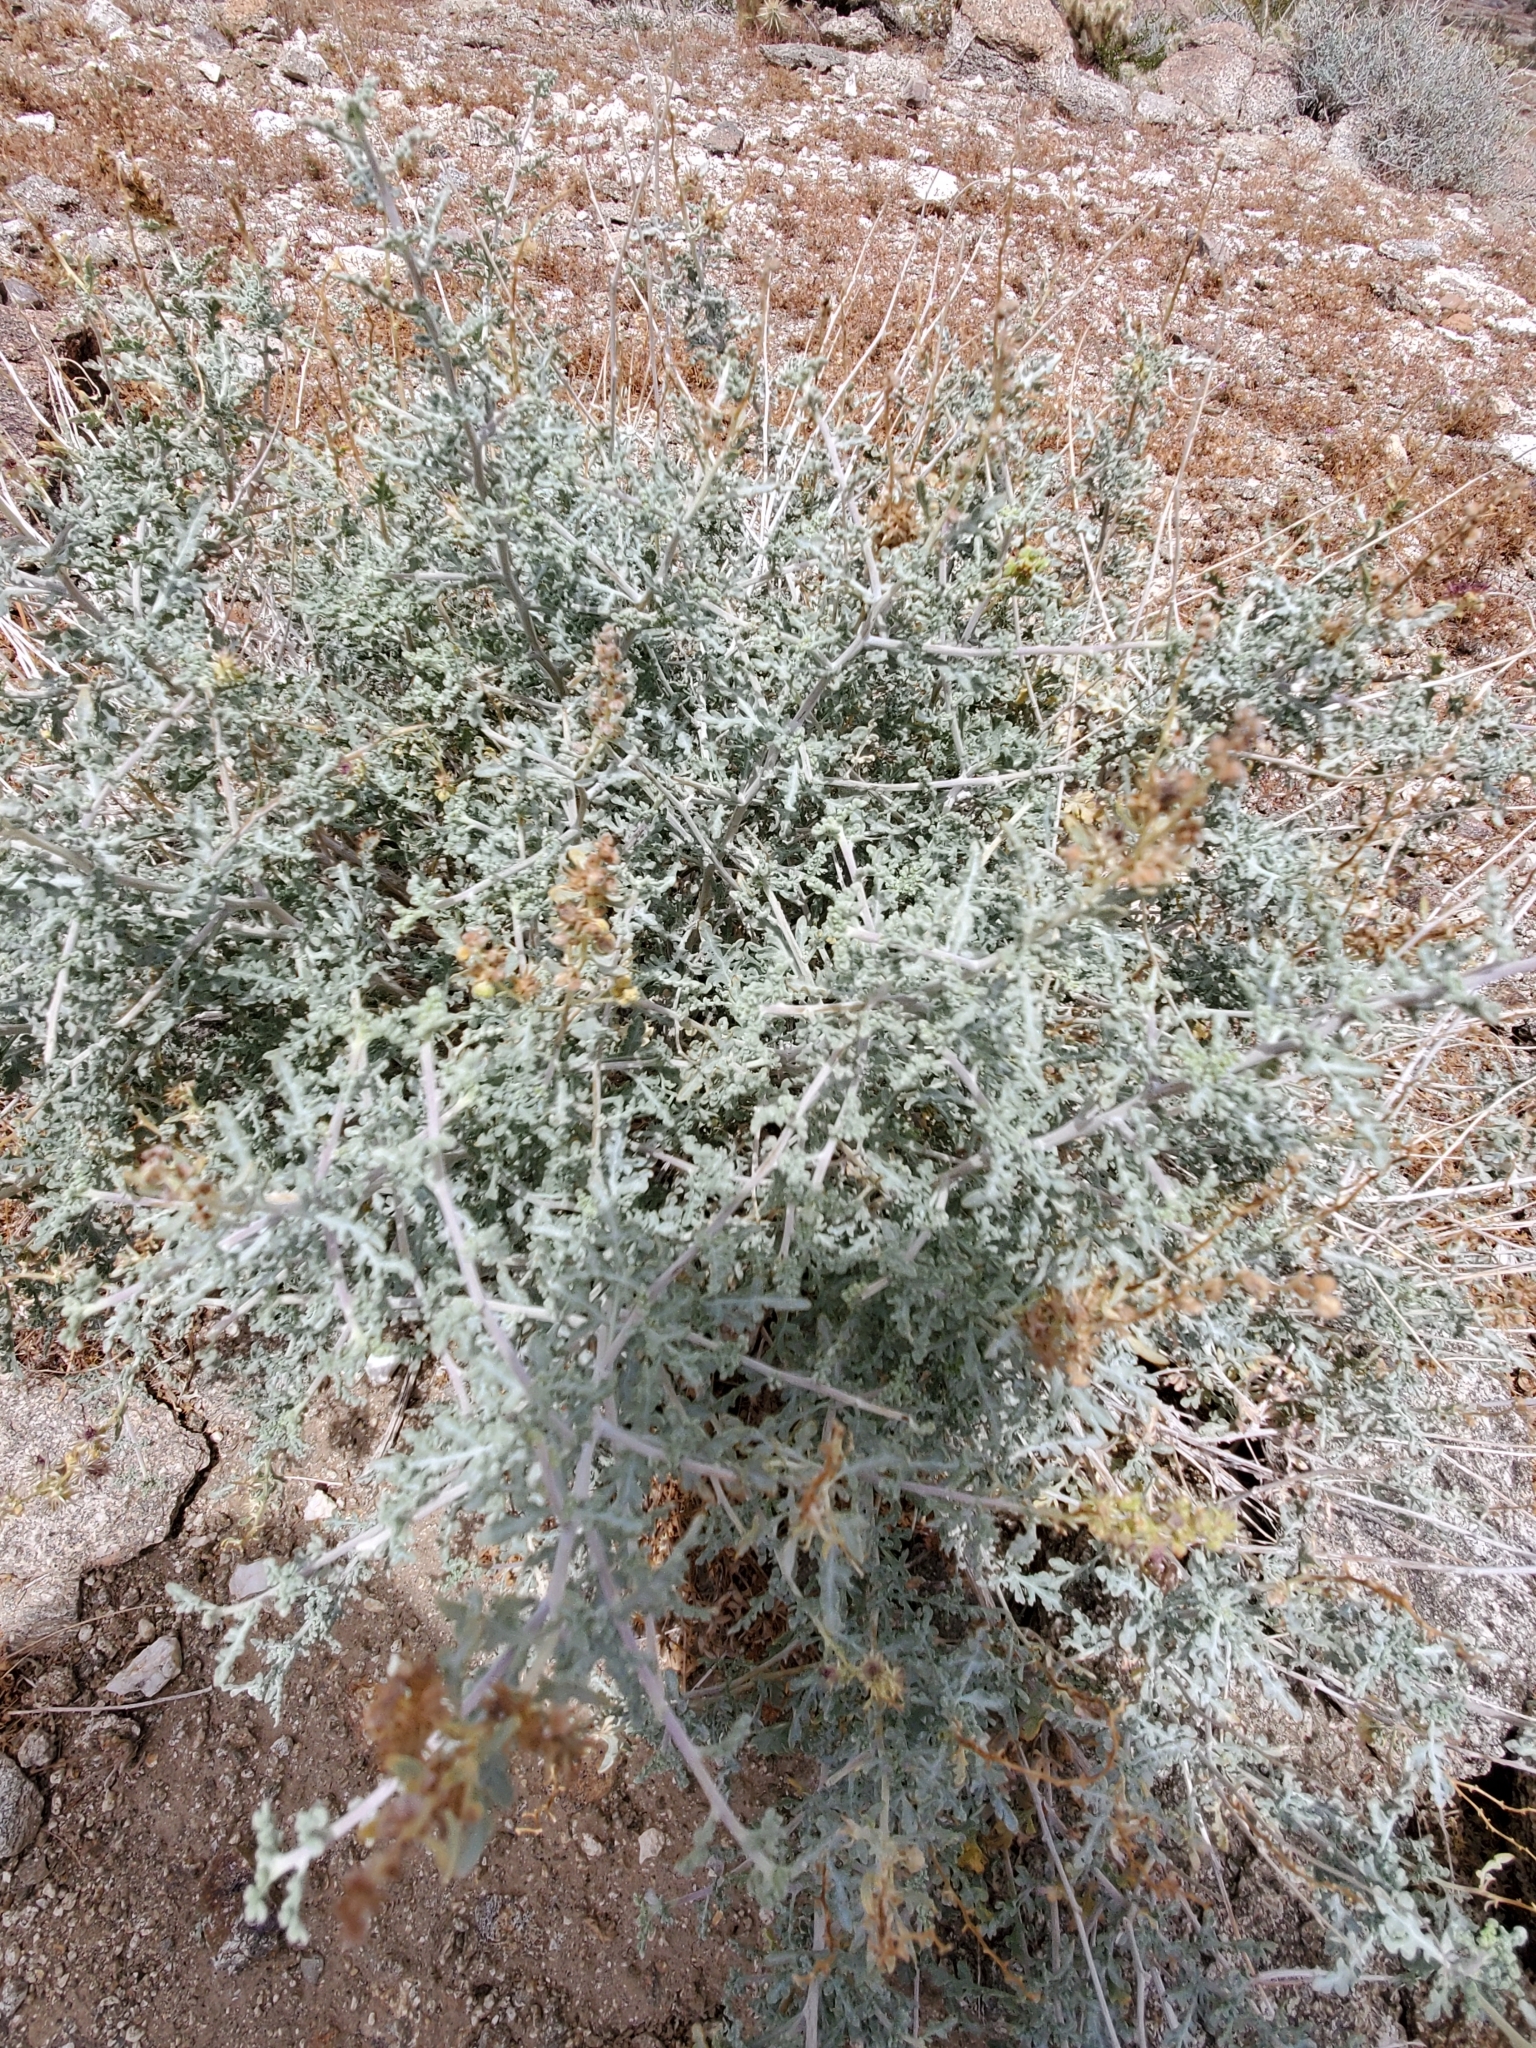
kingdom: Plantae
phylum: Tracheophyta
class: Magnoliopsida
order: Asterales
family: Asteraceae
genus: Ambrosia
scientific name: Ambrosia dumosa
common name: Bur-sage
